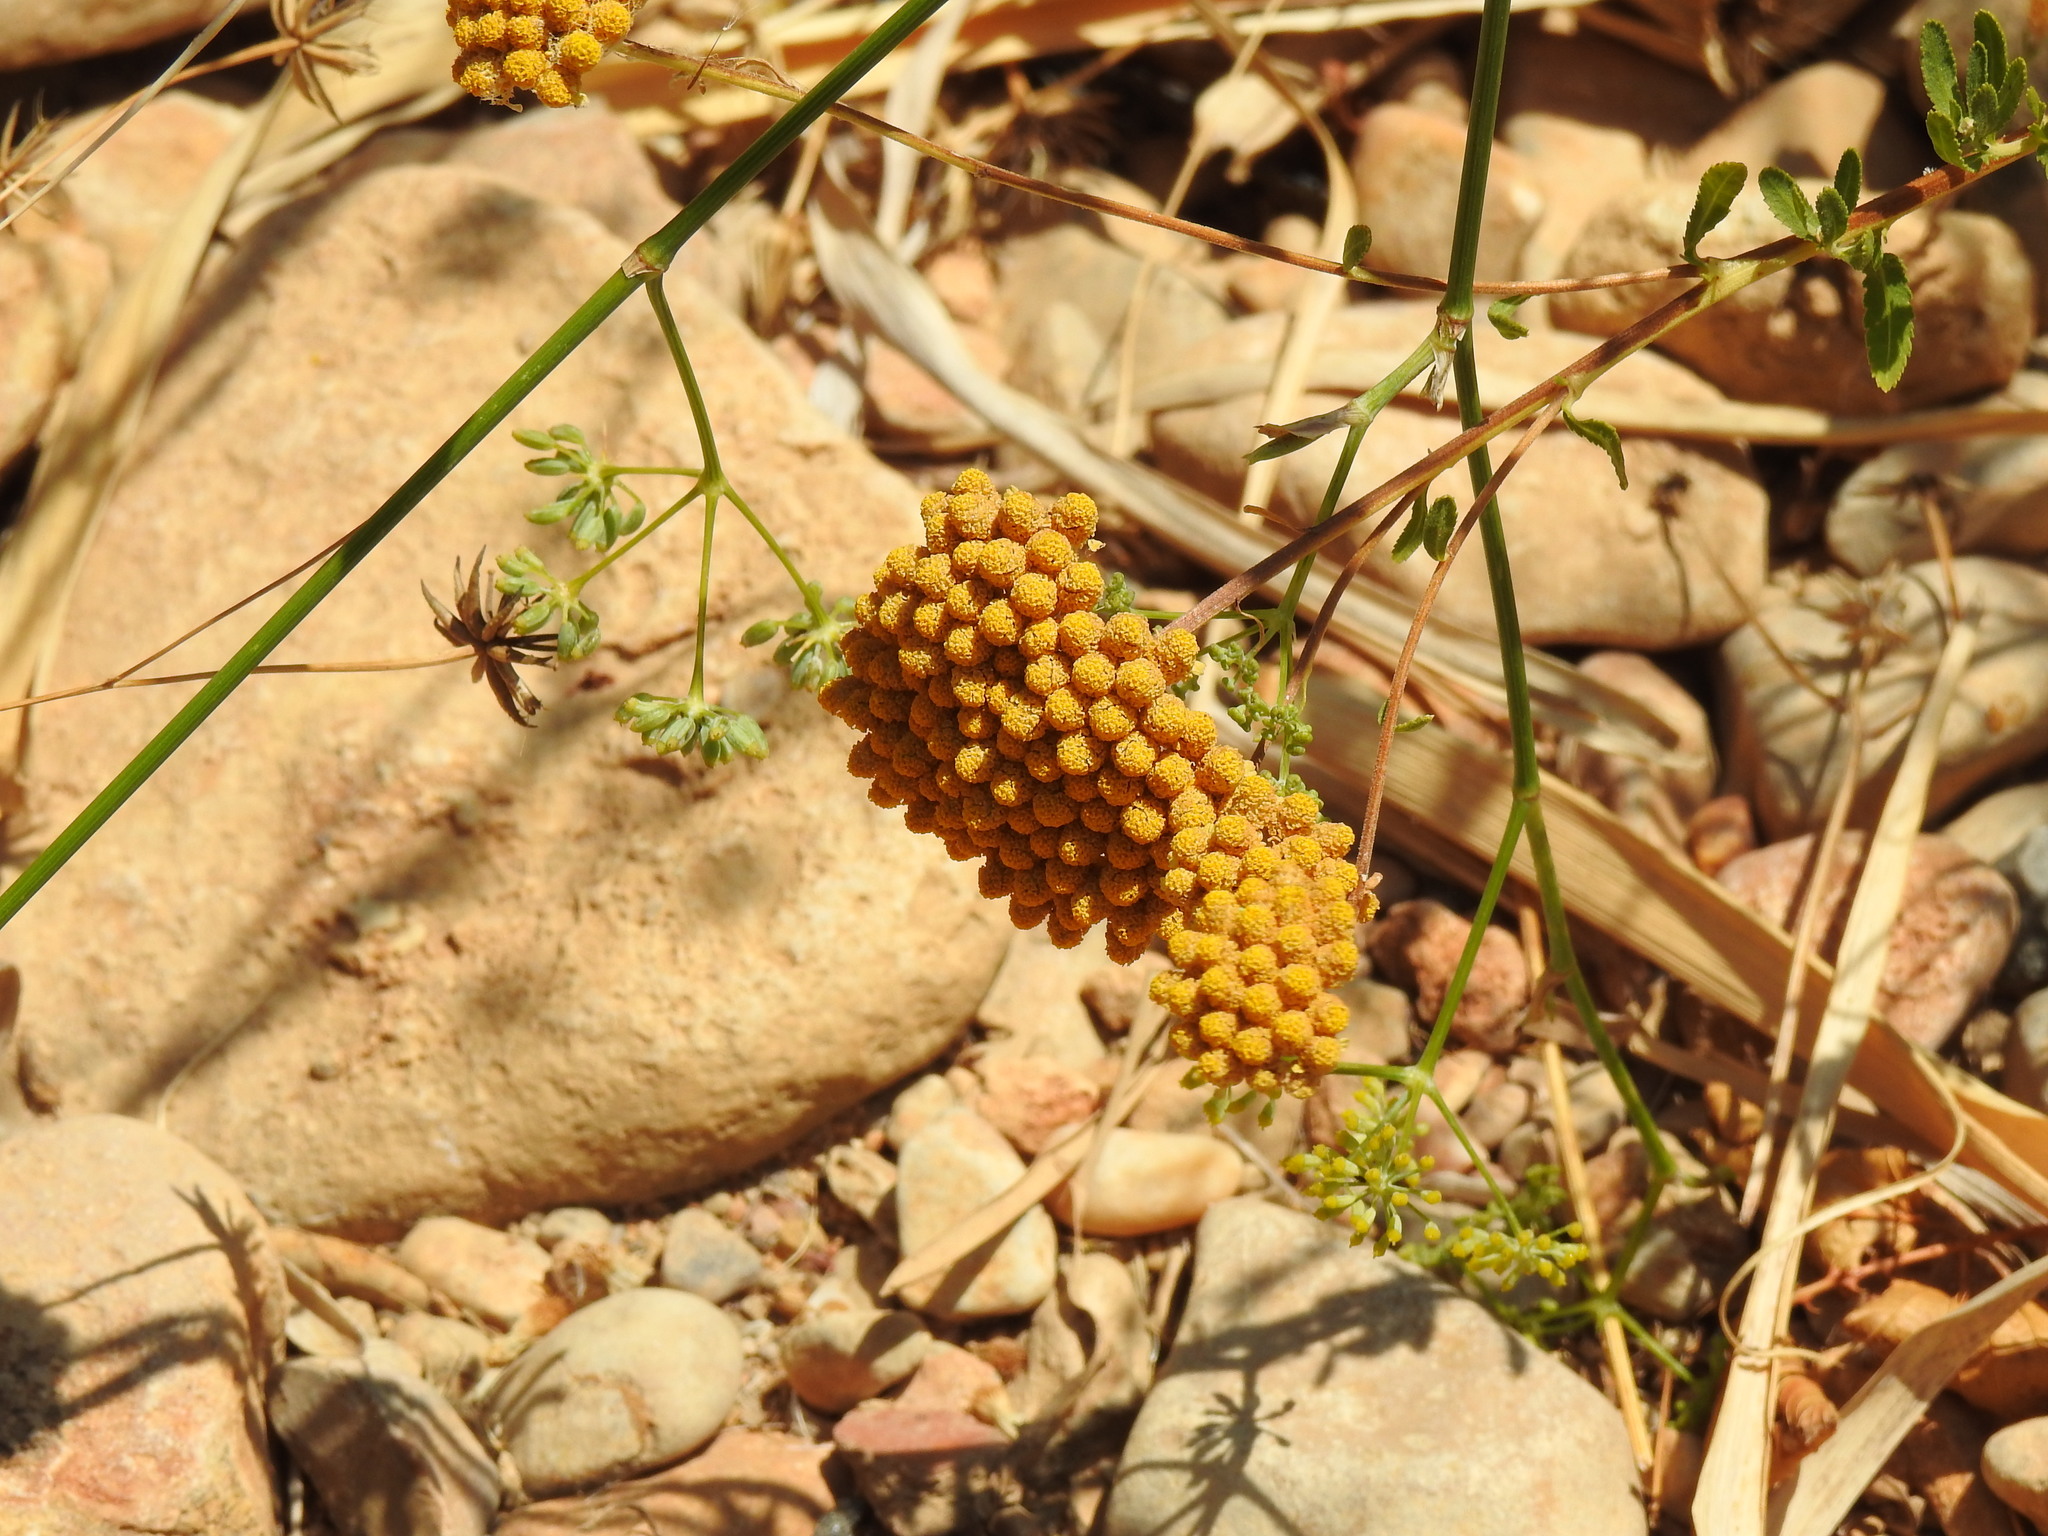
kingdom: Plantae
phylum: Tracheophyta
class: Magnoliopsida
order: Asterales
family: Asteraceae
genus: Achillea
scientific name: Achillea ageratum
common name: Sweet-nancy
